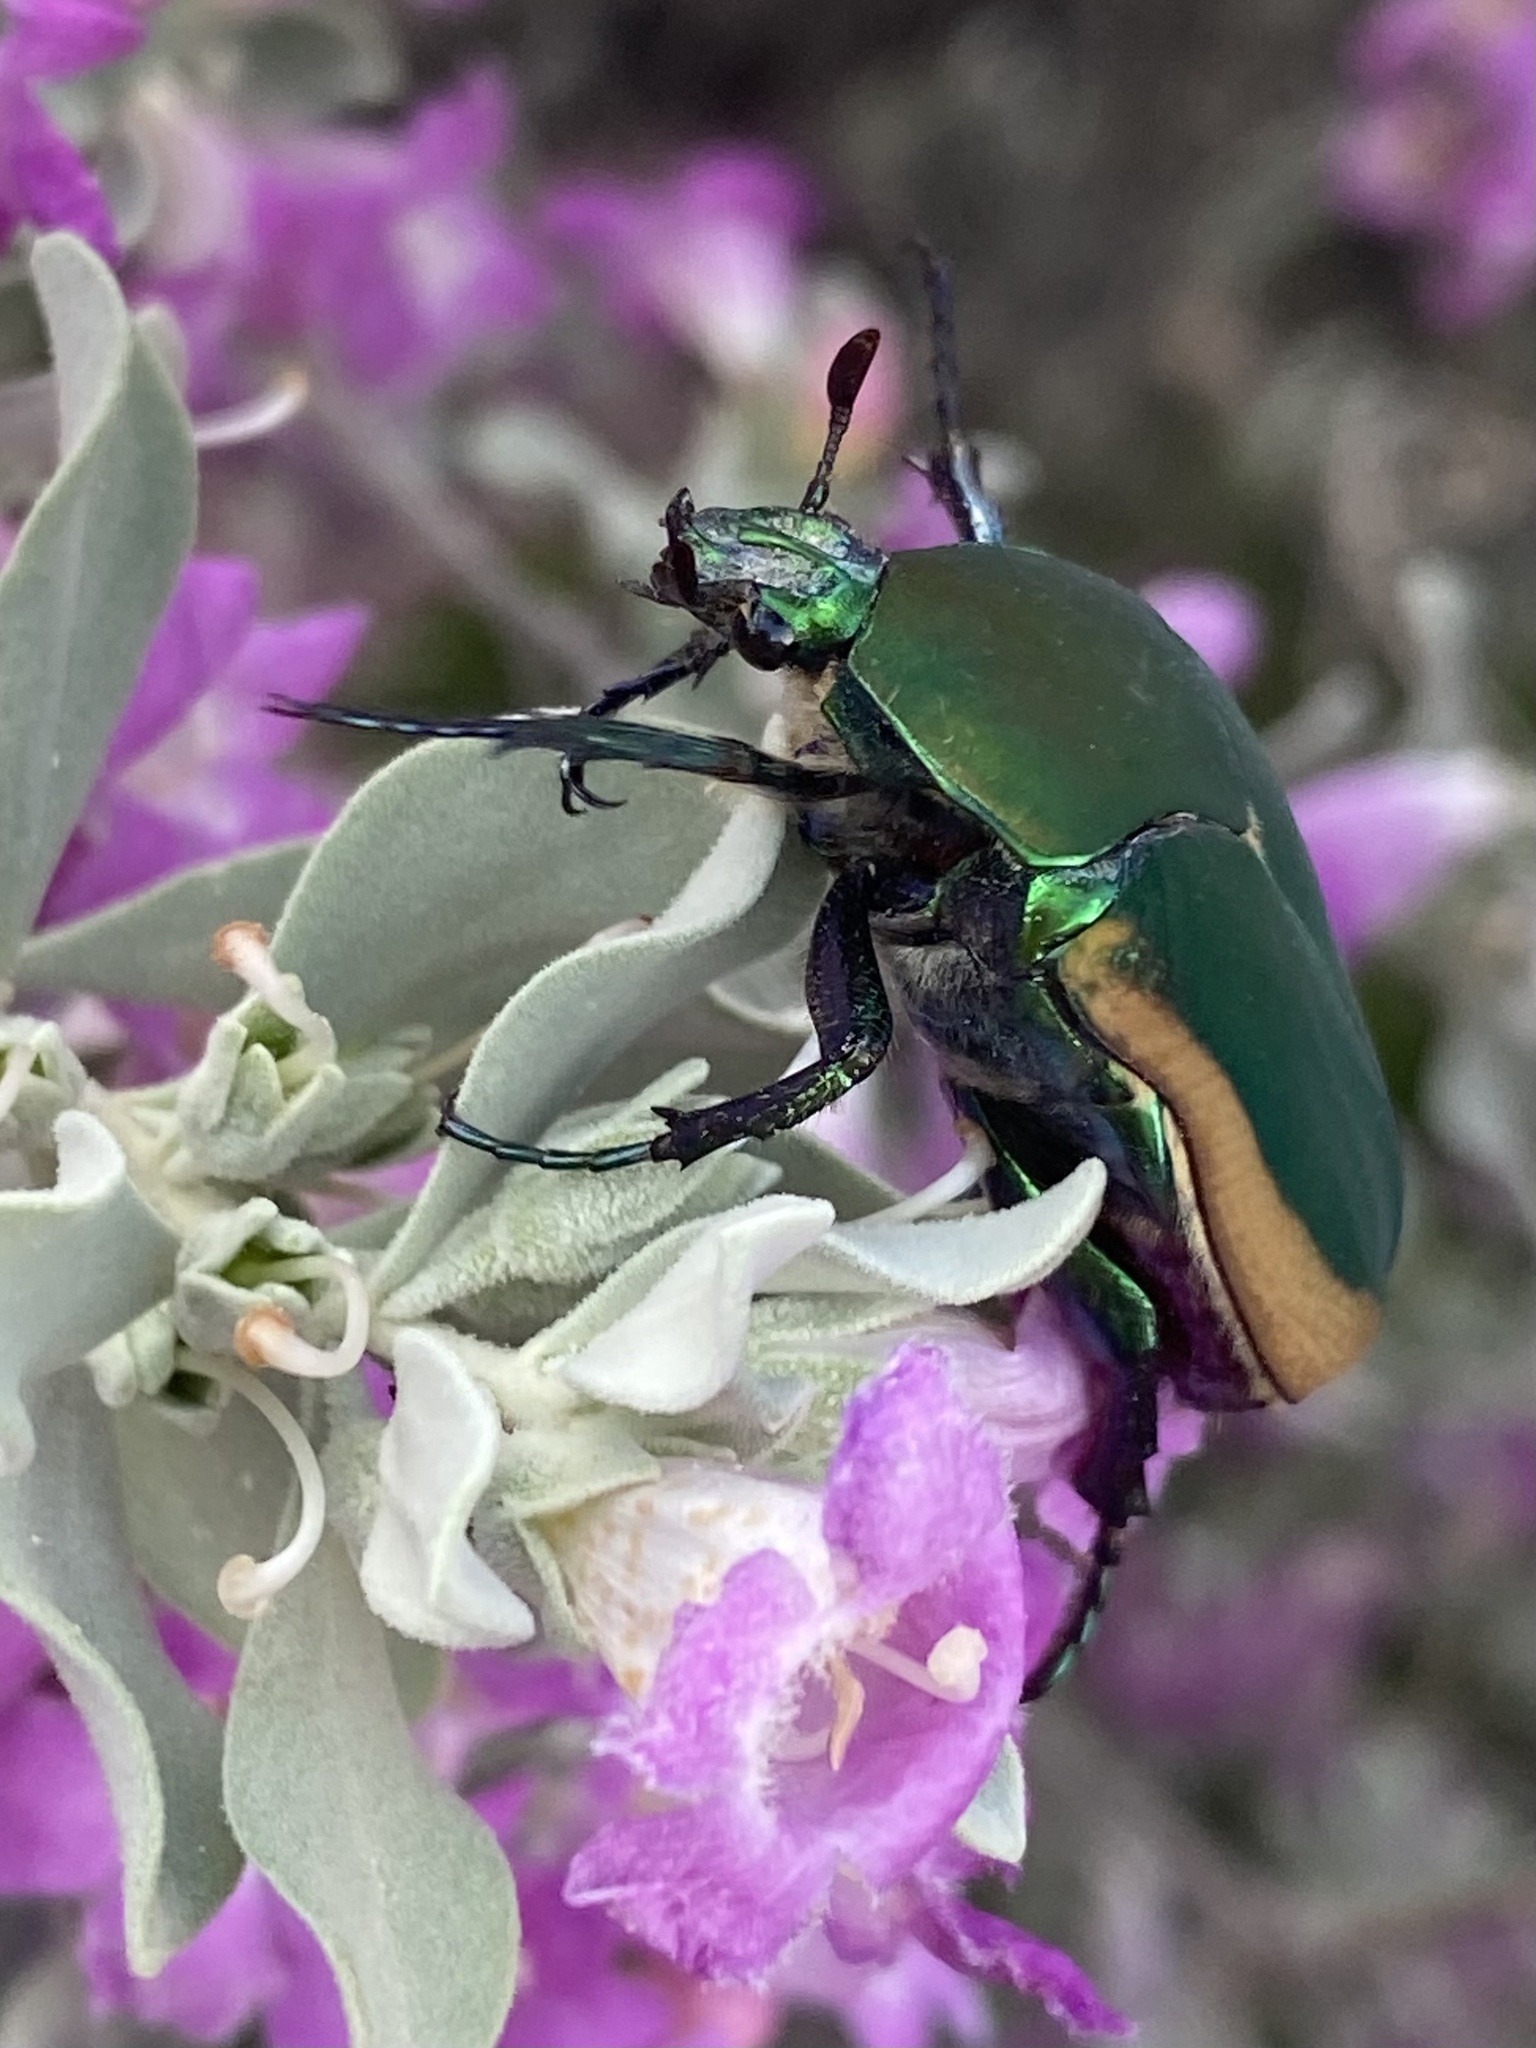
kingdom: Animalia
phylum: Arthropoda
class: Insecta
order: Coleoptera
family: Scarabaeidae
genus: Cotinis
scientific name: Cotinis mutabilis
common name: Figeater beetle
